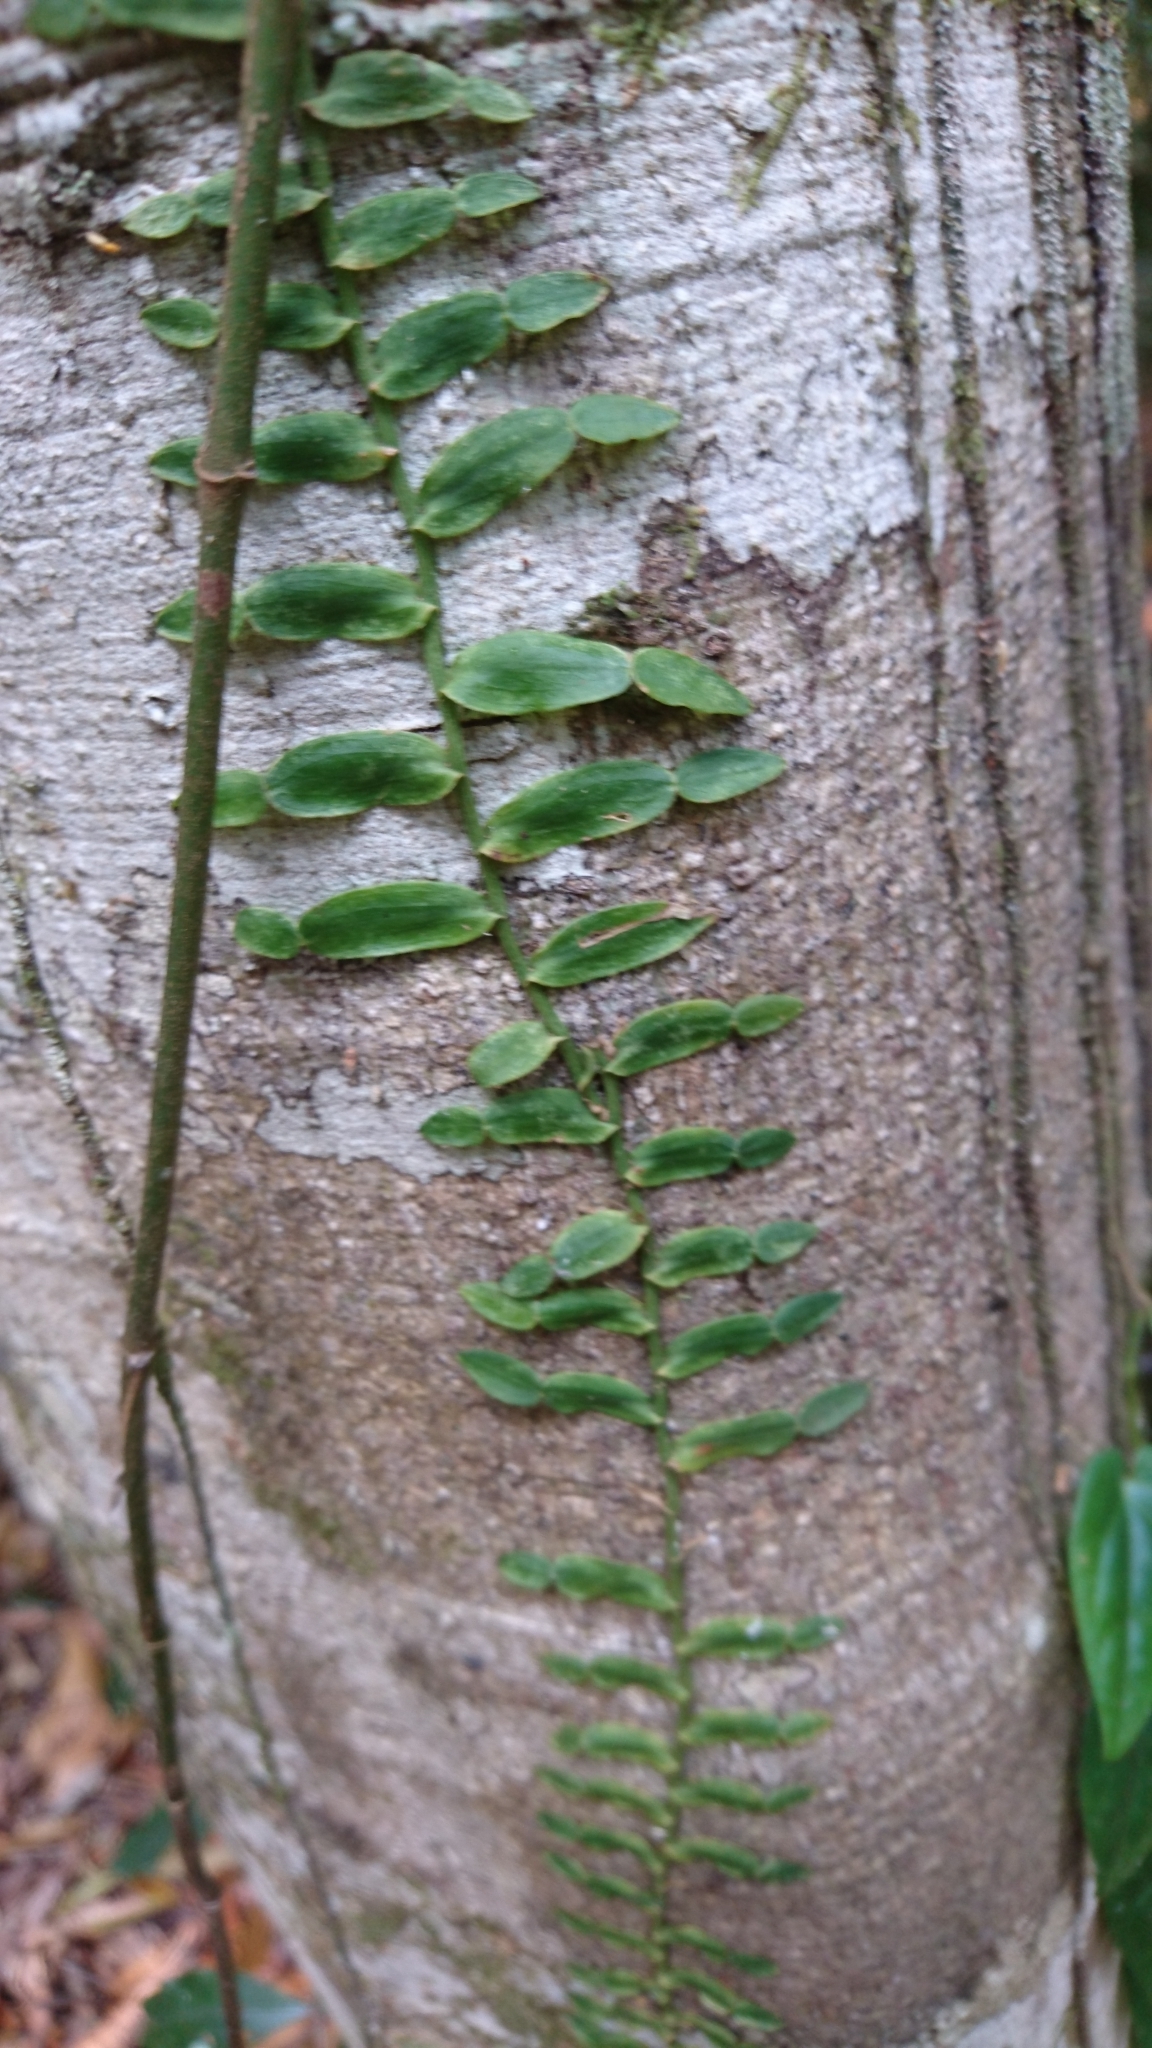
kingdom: Plantae
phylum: Tracheophyta
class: Liliopsida
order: Alismatales
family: Araceae
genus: Pothos
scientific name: Pothos longipes
